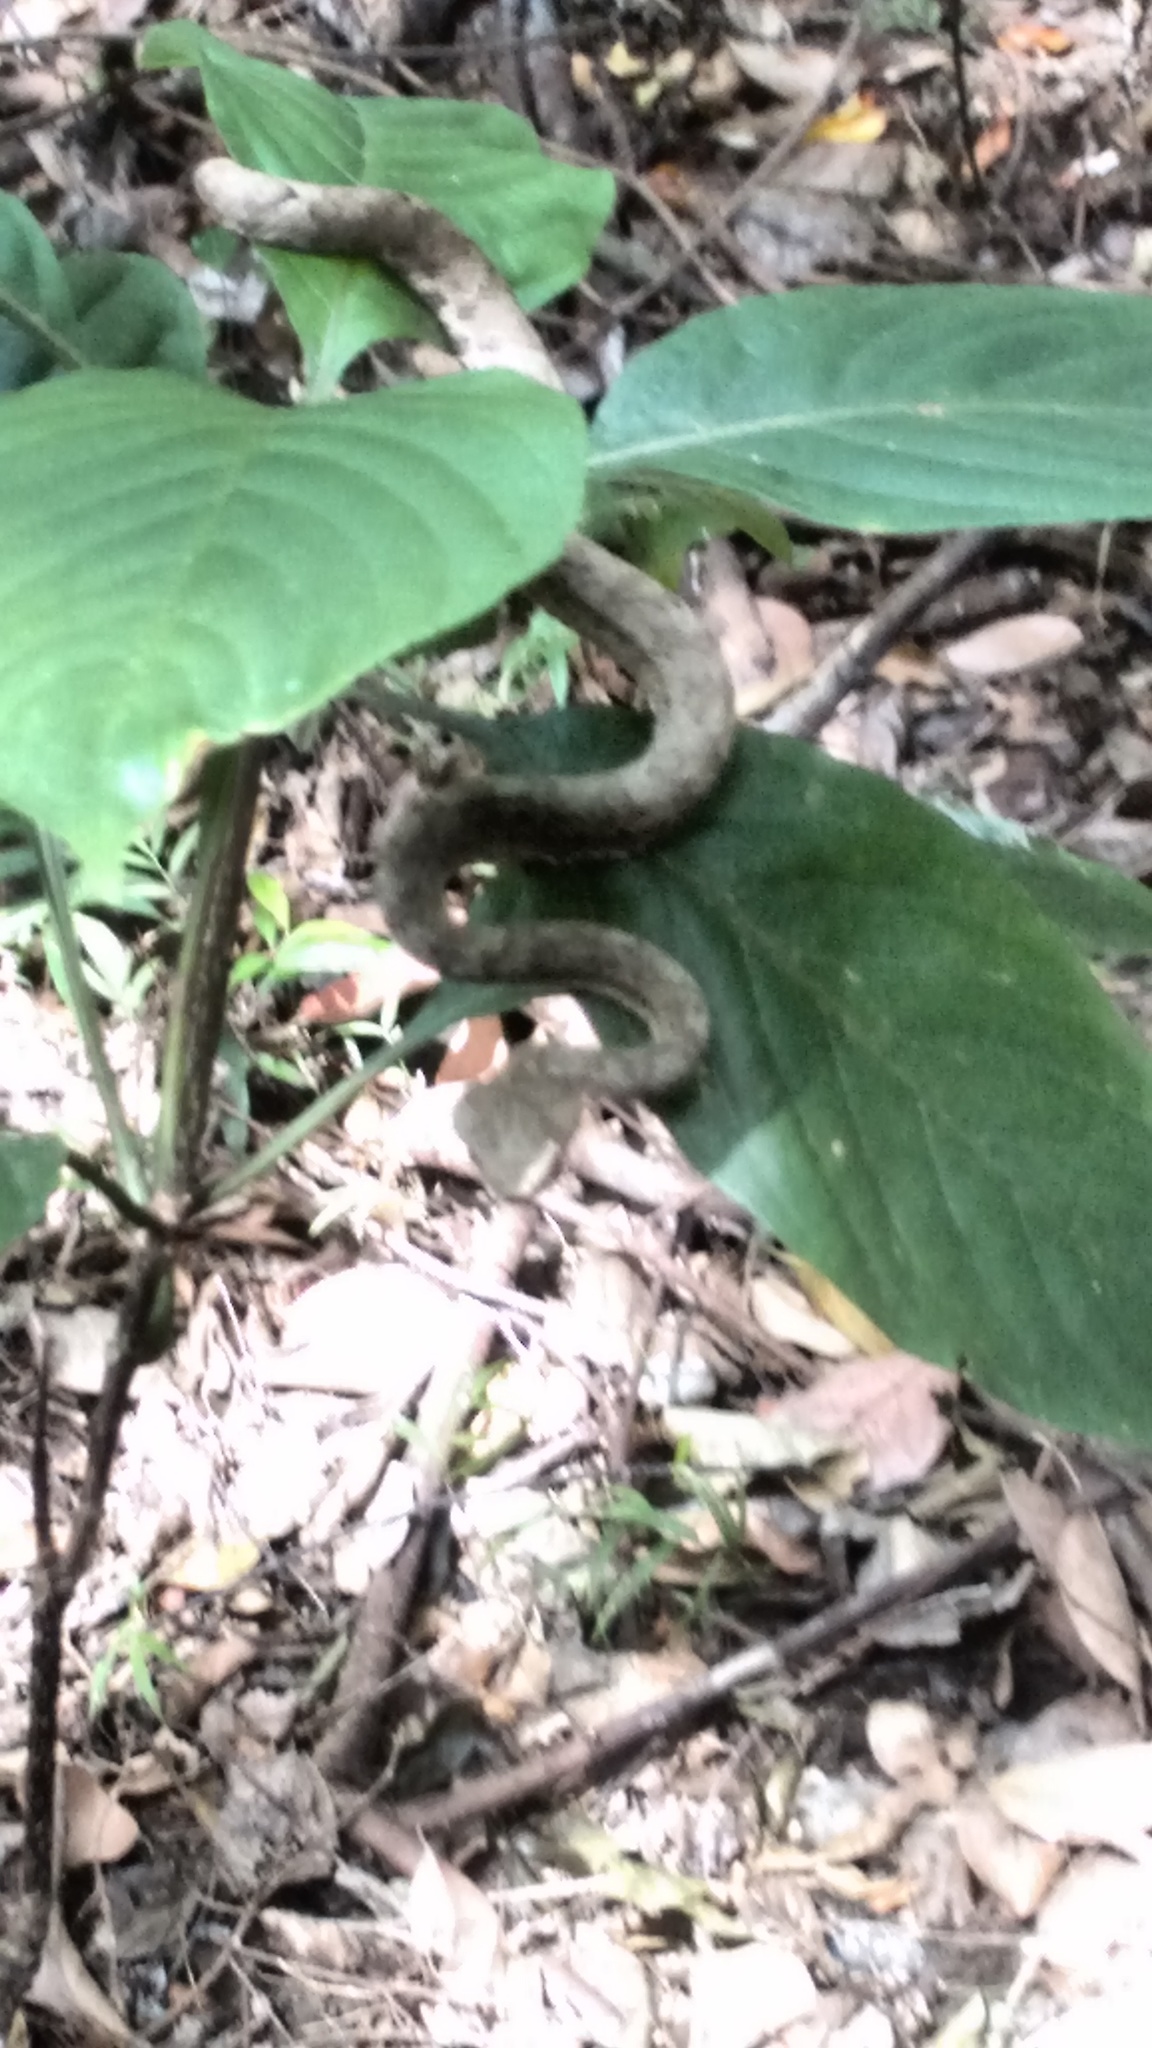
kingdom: Animalia
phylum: Chordata
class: Squamata
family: Viperidae
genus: Craspedocephalus
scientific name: Craspedocephalus travancoricus
